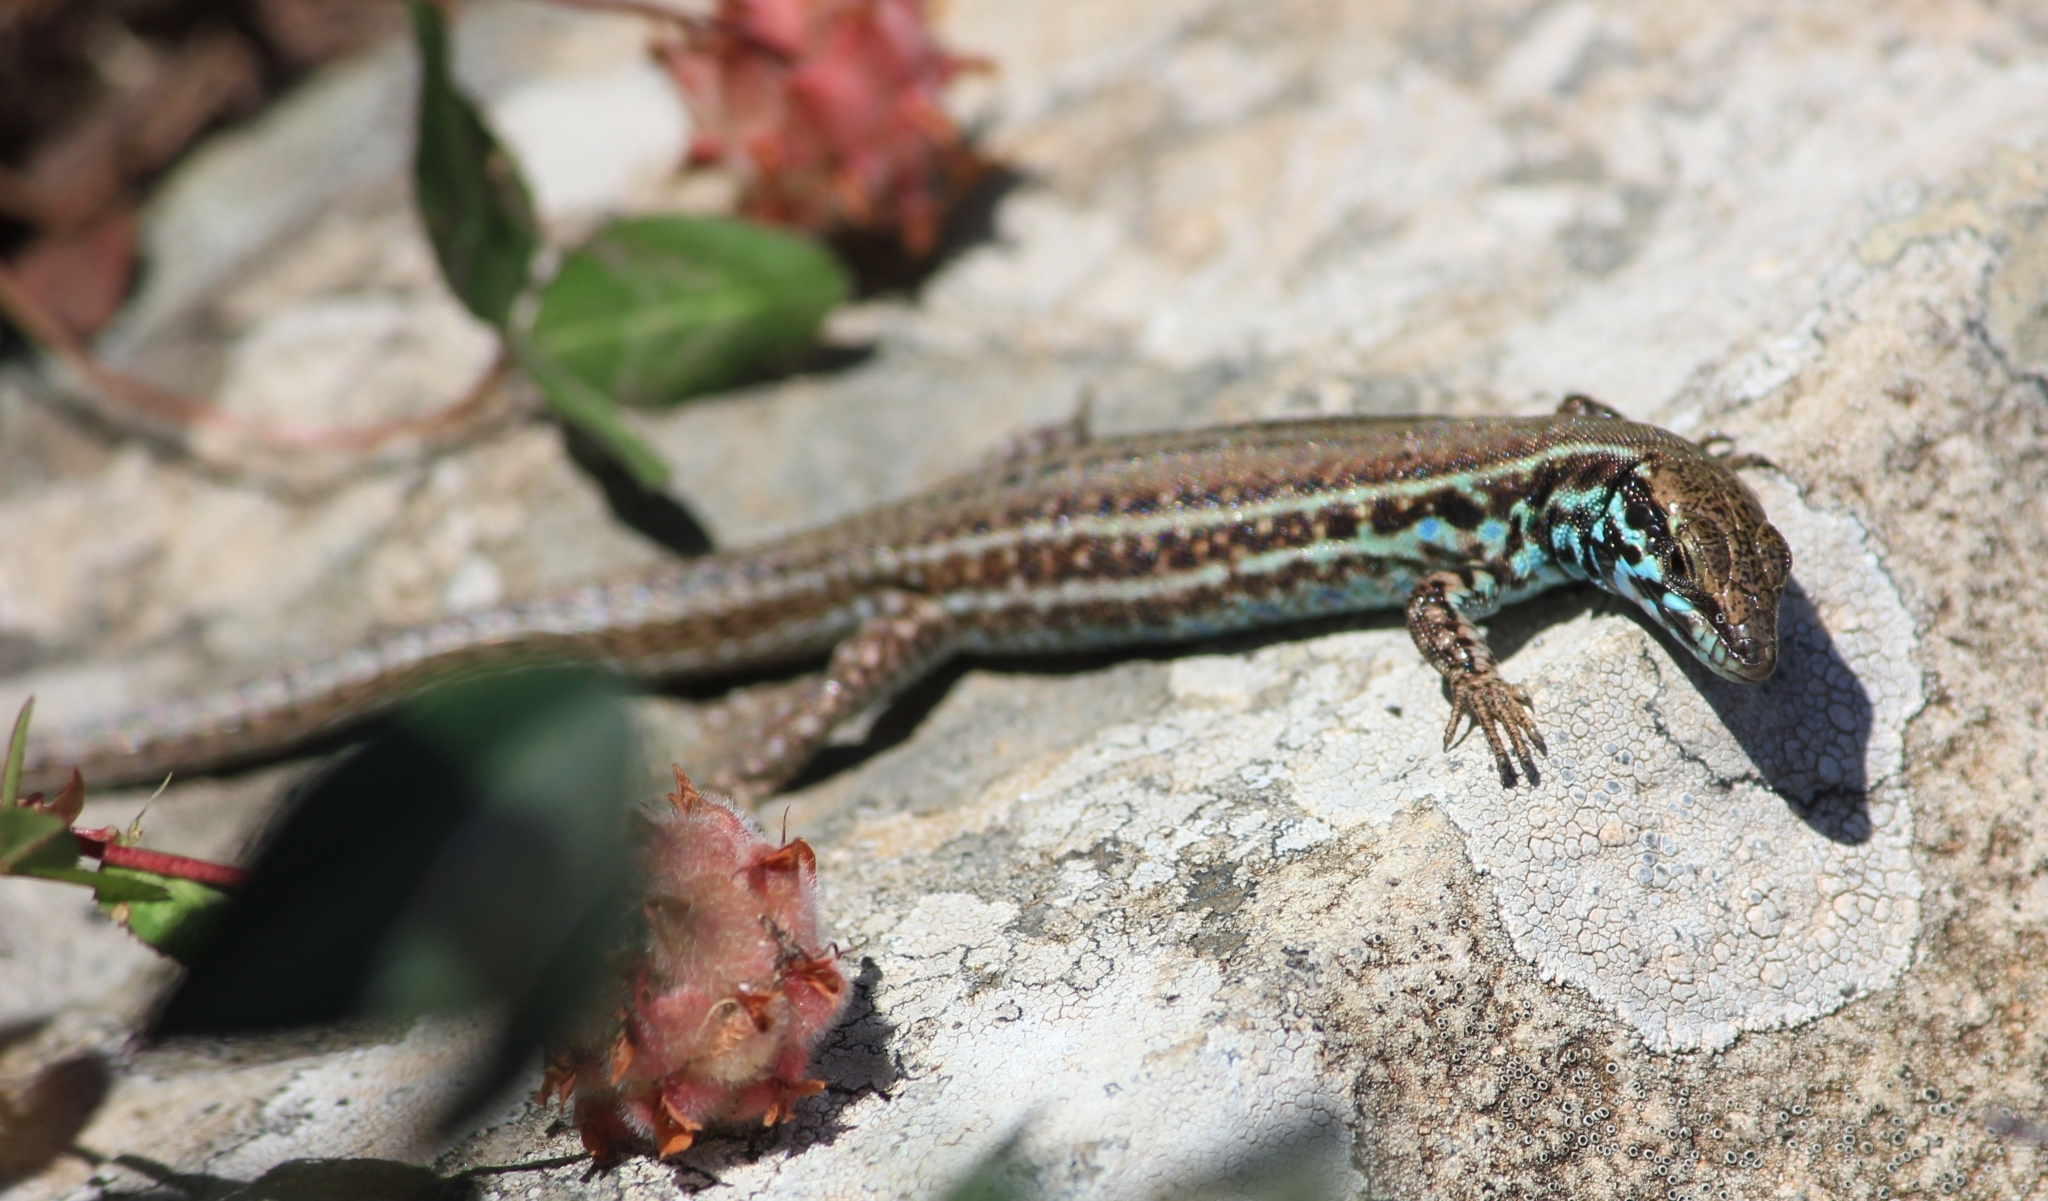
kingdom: Animalia
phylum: Chordata
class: Squamata
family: Lacertidae
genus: Podarcis
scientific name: Podarcis milensis
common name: Milos wall lizard
